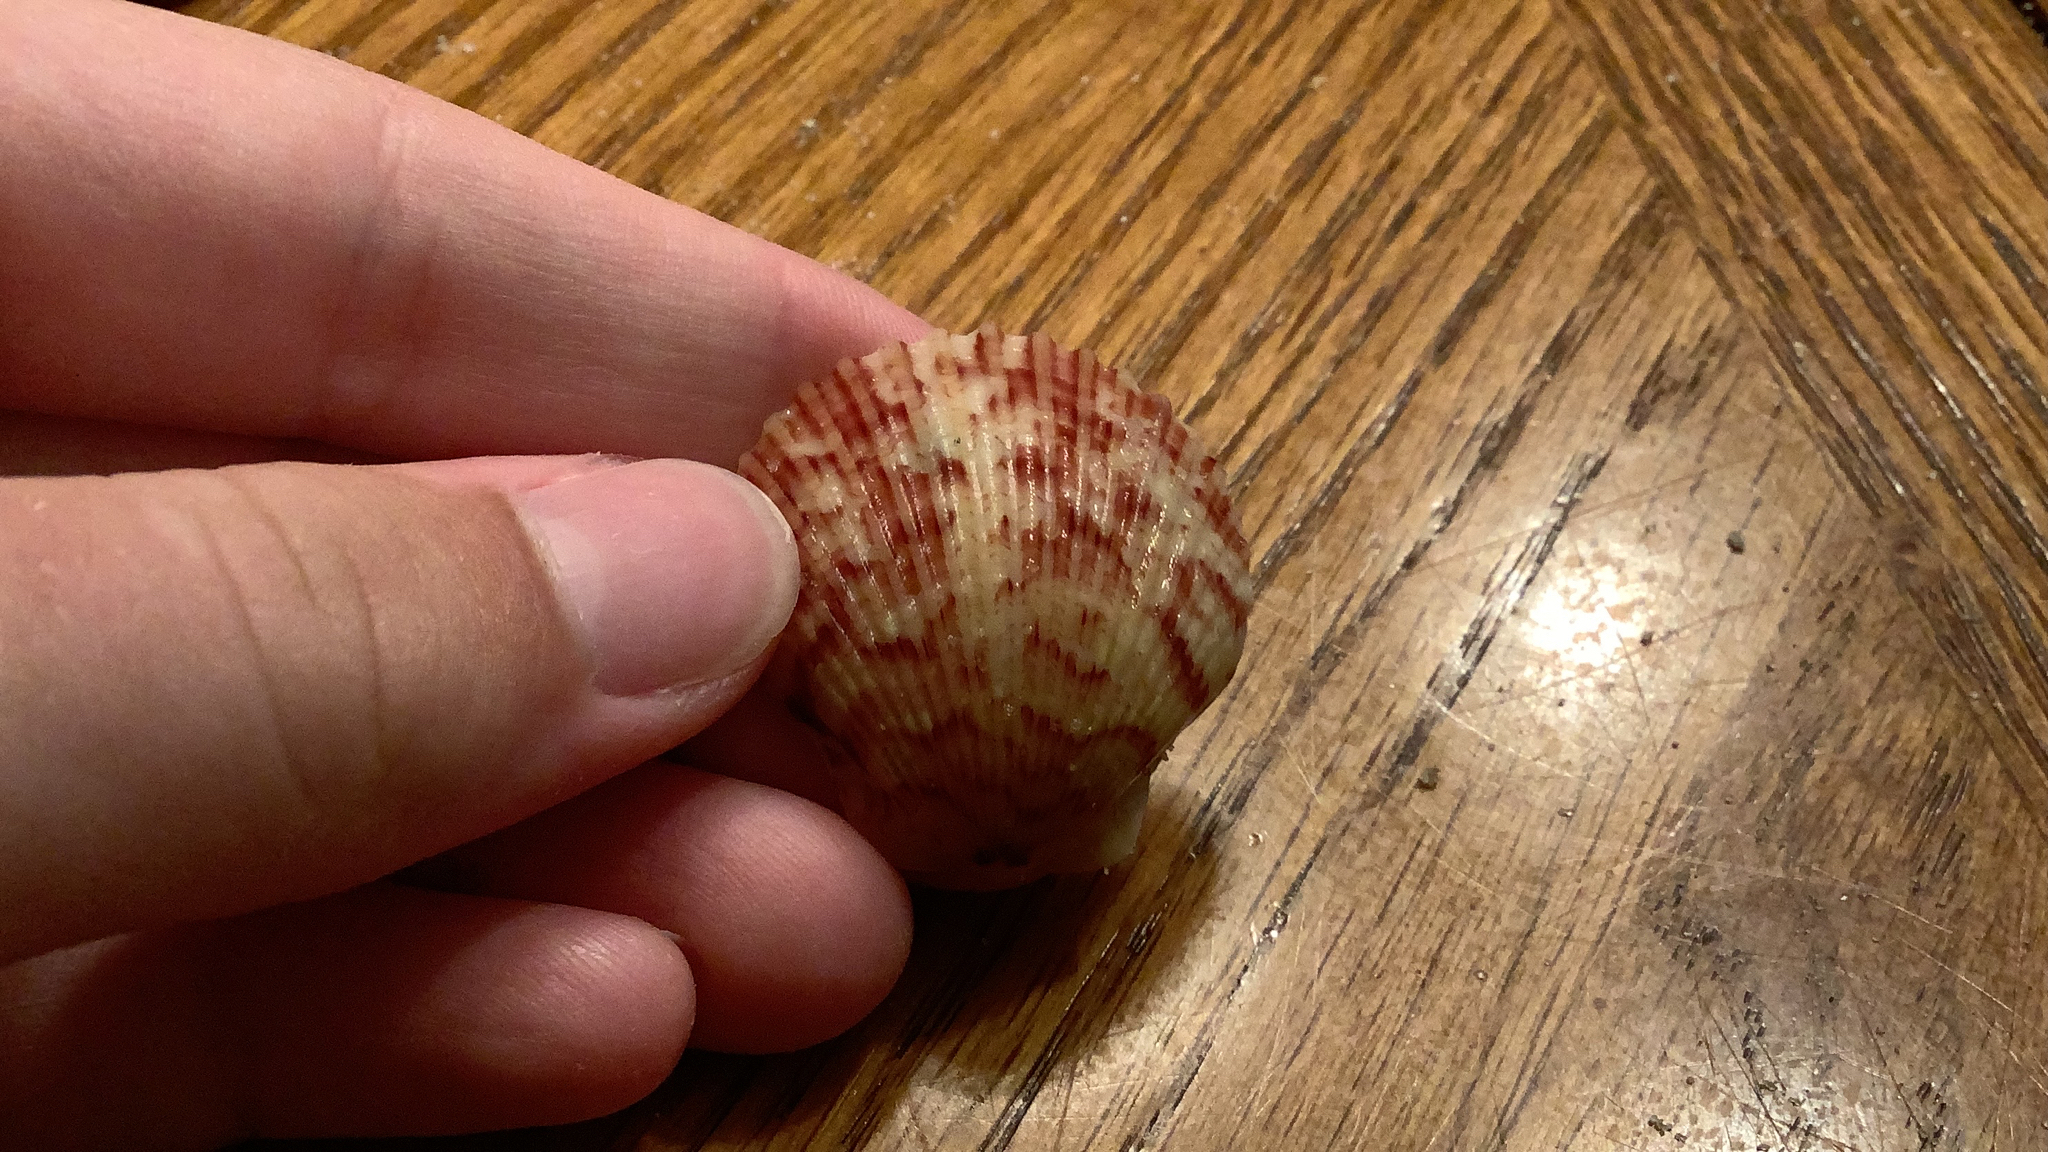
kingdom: Animalia
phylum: Mollusca
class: Bivalvia
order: Pectinida
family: Pectinidae
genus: Argopecten
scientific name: Argopecten gibbus
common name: Atlantic calico scallop
